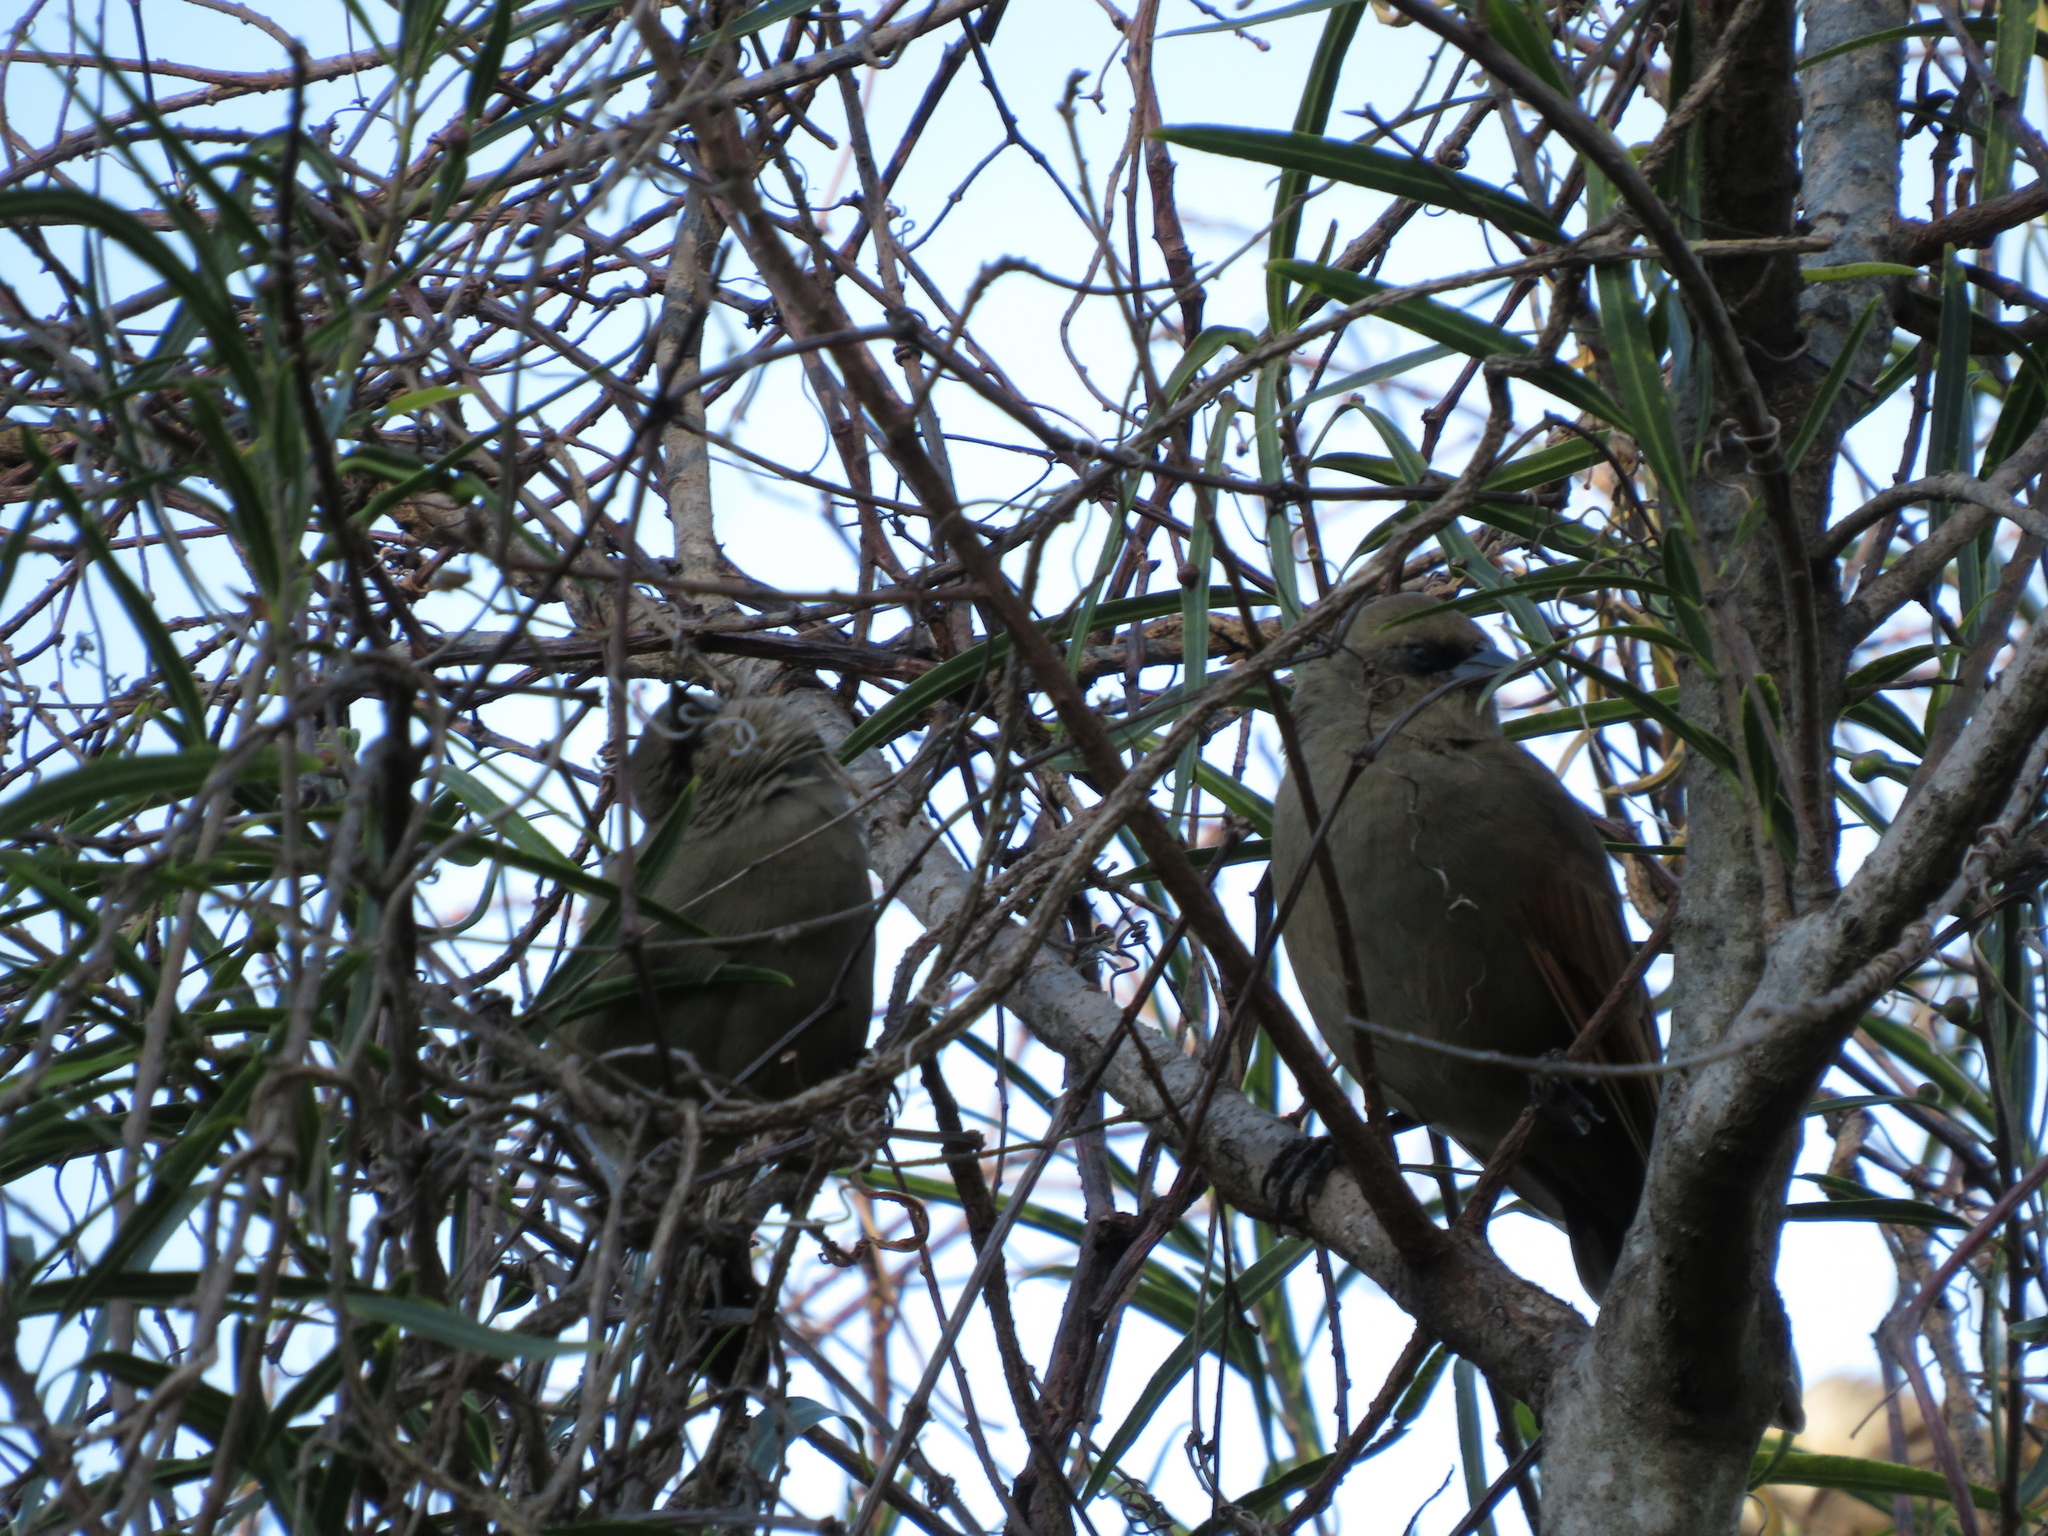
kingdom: Animalia
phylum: Chordata
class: Aves
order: Passeriformes
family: Icteridae
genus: Agelaioides
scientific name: Agelaioides badius
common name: Baywing
